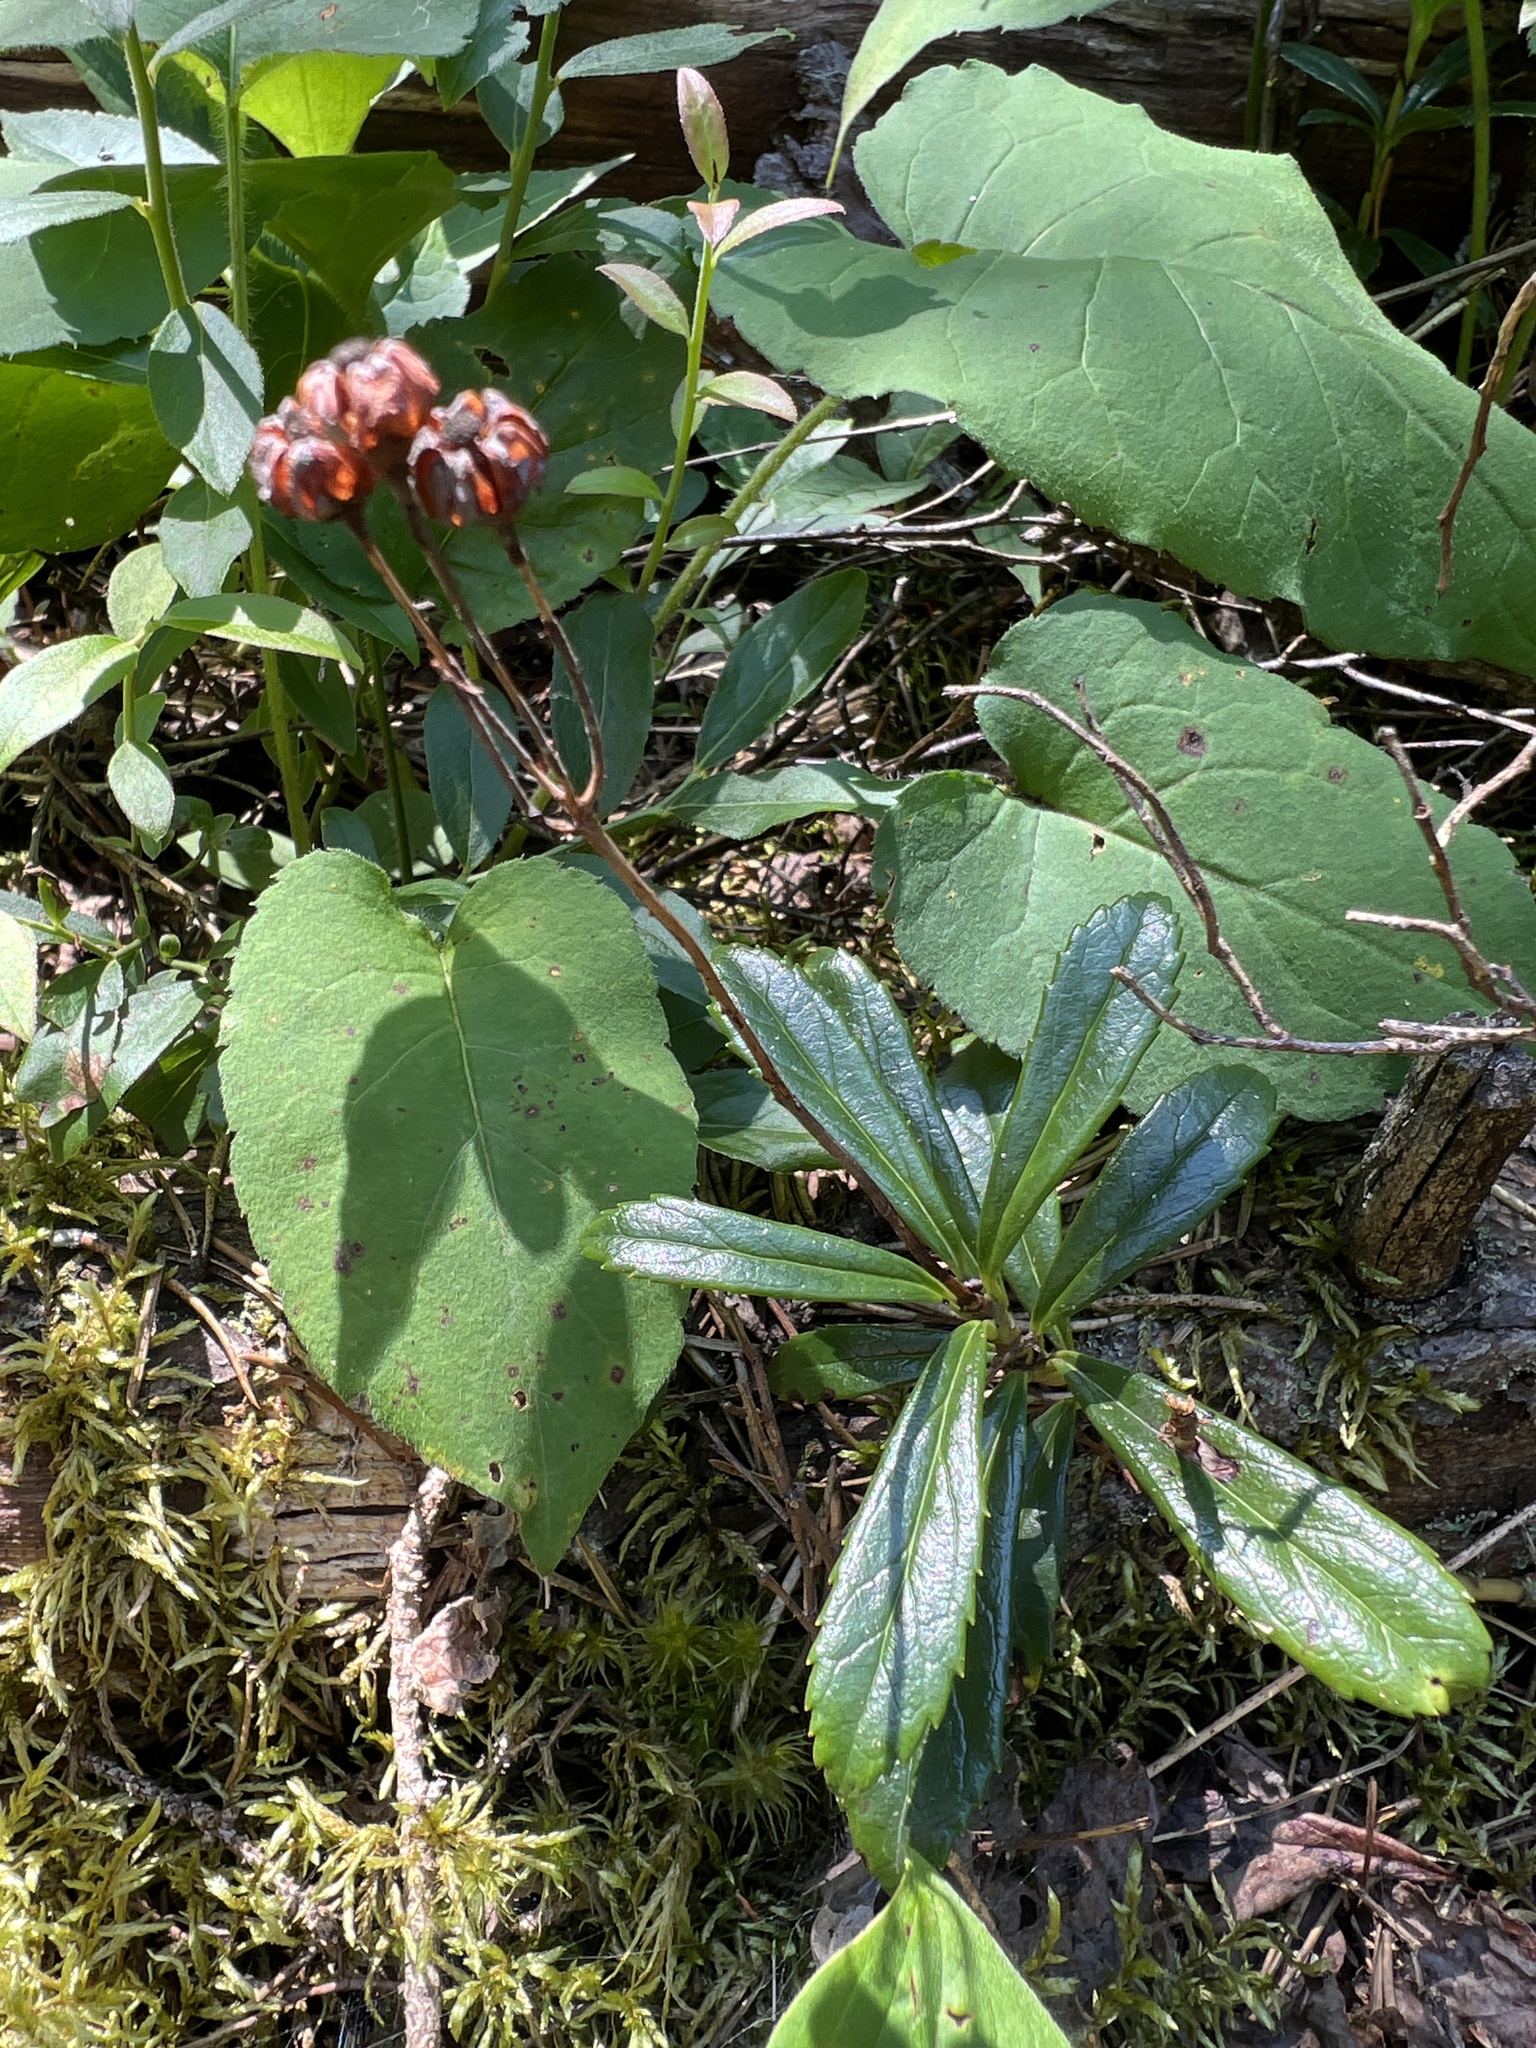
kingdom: Plantae
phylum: Tracheophyta
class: Magnoliopsida
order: Ericales
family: Ericaceae
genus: Chimaphila
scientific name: Chimaphila umbellata
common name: Pipsissewa
